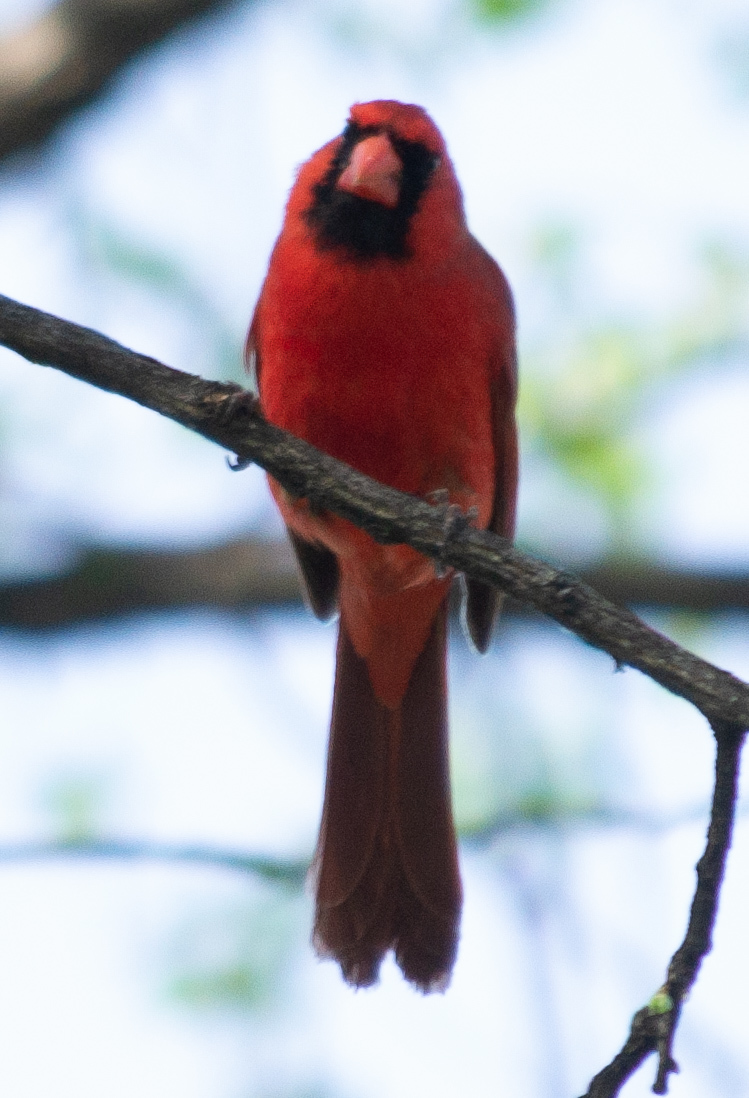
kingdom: Animalia
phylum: Chordata
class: Aves
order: Passeriformes
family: Cardinalidae
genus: Cardinalis
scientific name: Cardinalis cardinalis
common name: Northern cardinal
